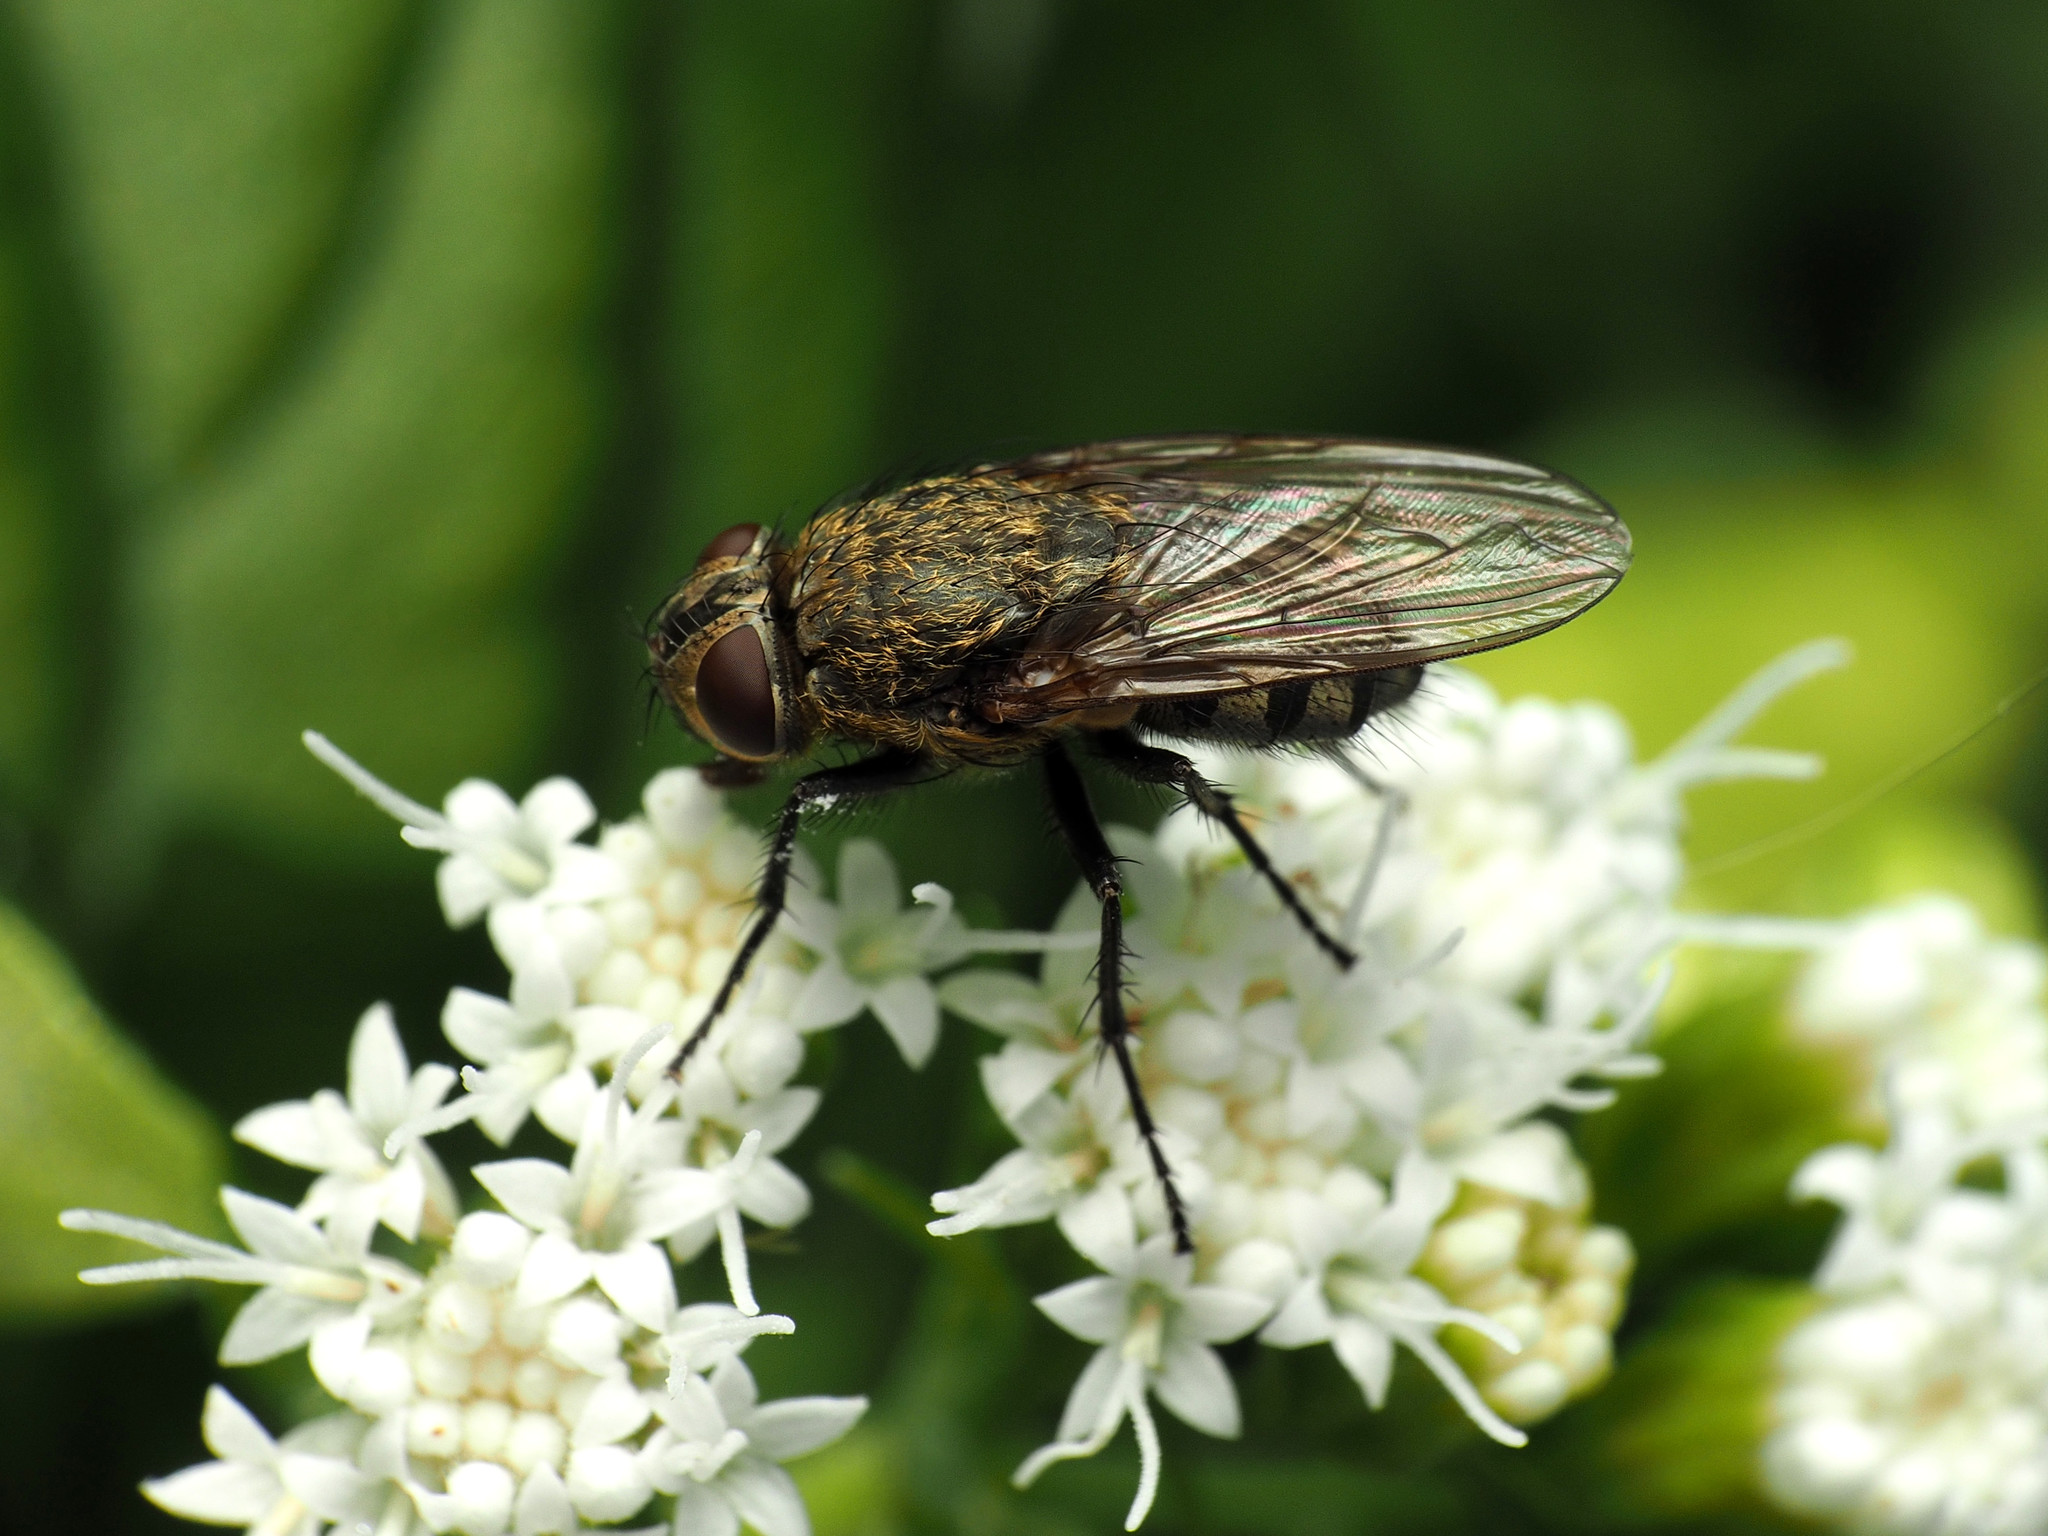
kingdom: Animalia
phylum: Arthropoda
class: Insecta
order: Diptera
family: Polleniidae
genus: Pollenia
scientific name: Pollenia
